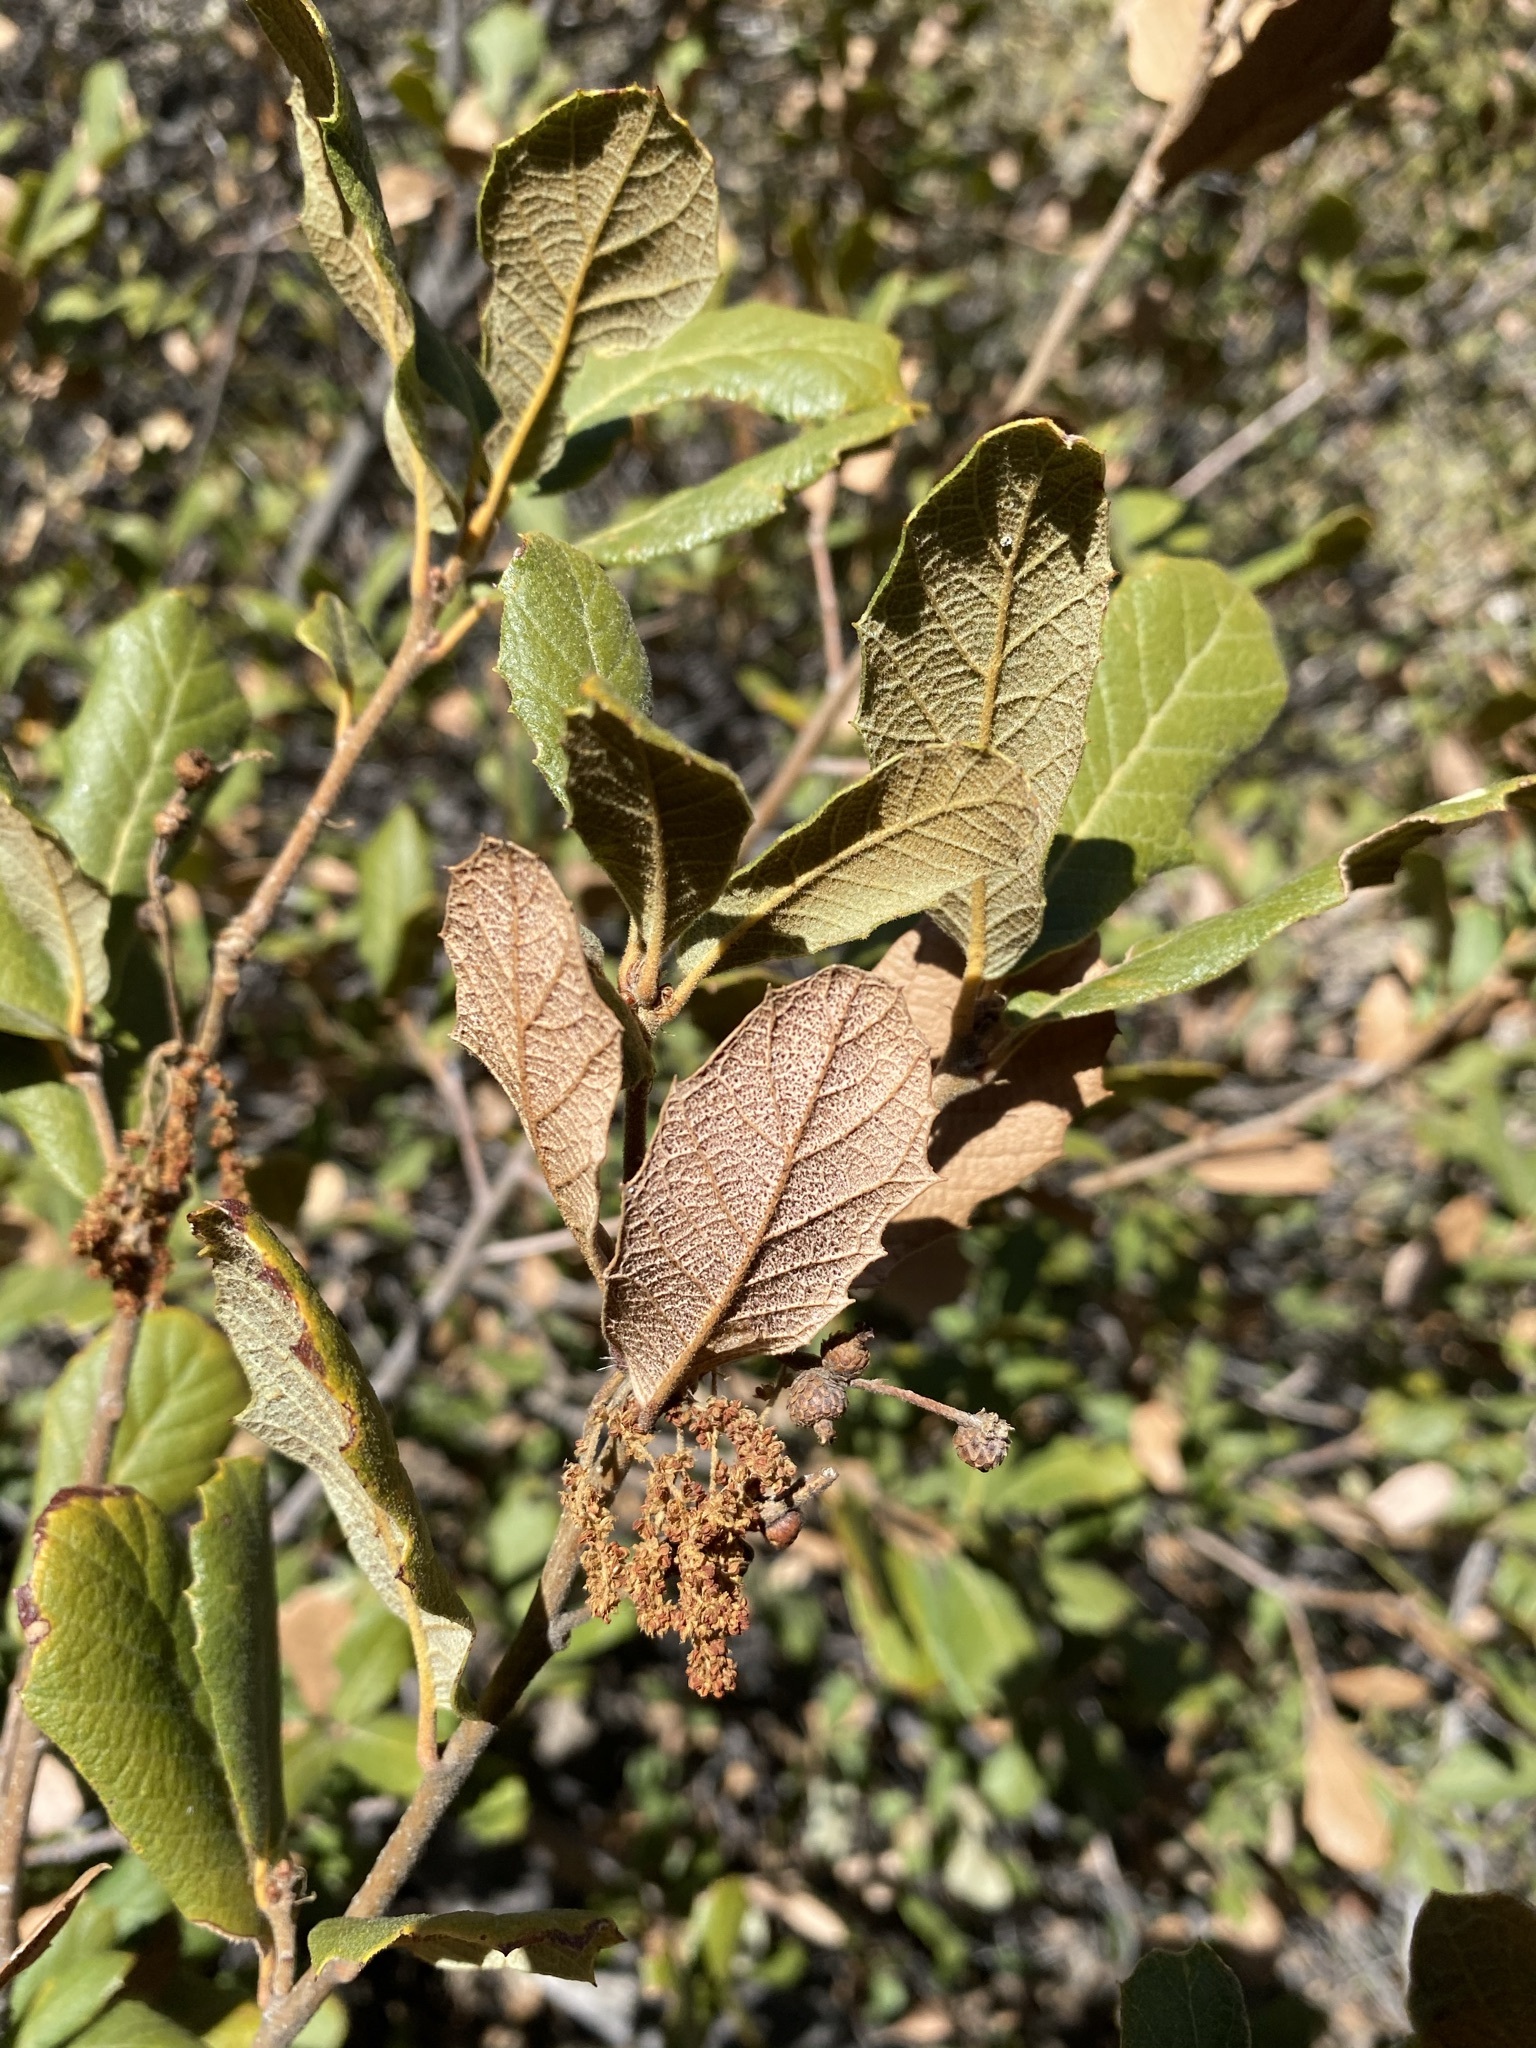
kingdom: Plantae
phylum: Tracheophyta
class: Magnoliopsida
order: Fagales
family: Fagaceae
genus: Quercus
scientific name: Quercus rugosa
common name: Netleaf oak
